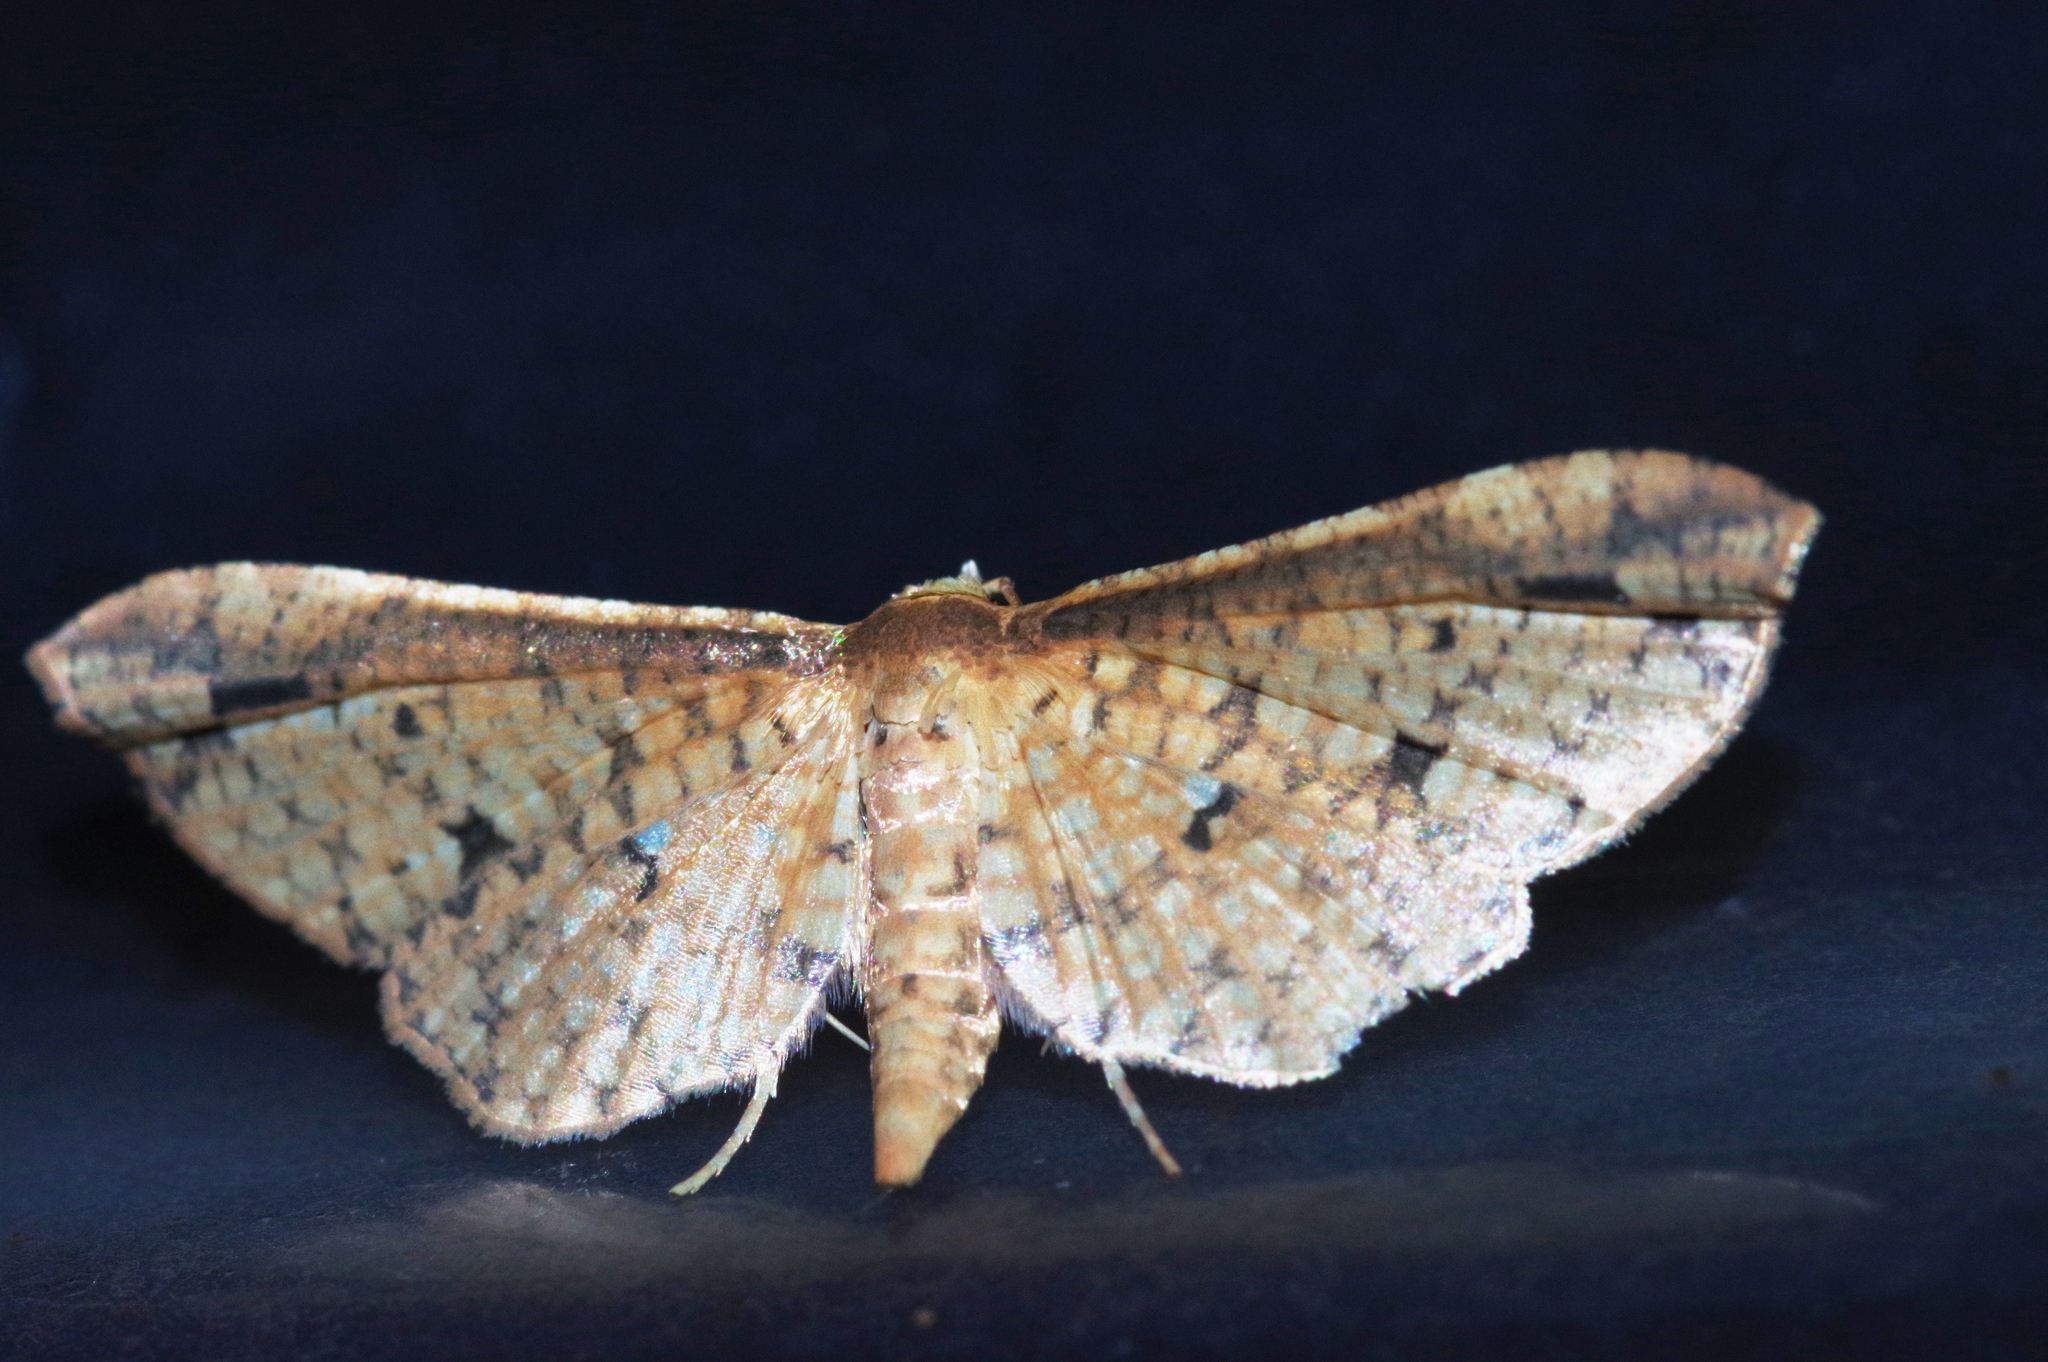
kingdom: Animalia
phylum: Arthropoda
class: Insecta
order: Lepidoptera
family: Thyrididae
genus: Pharambara
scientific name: Pharambara splendida
